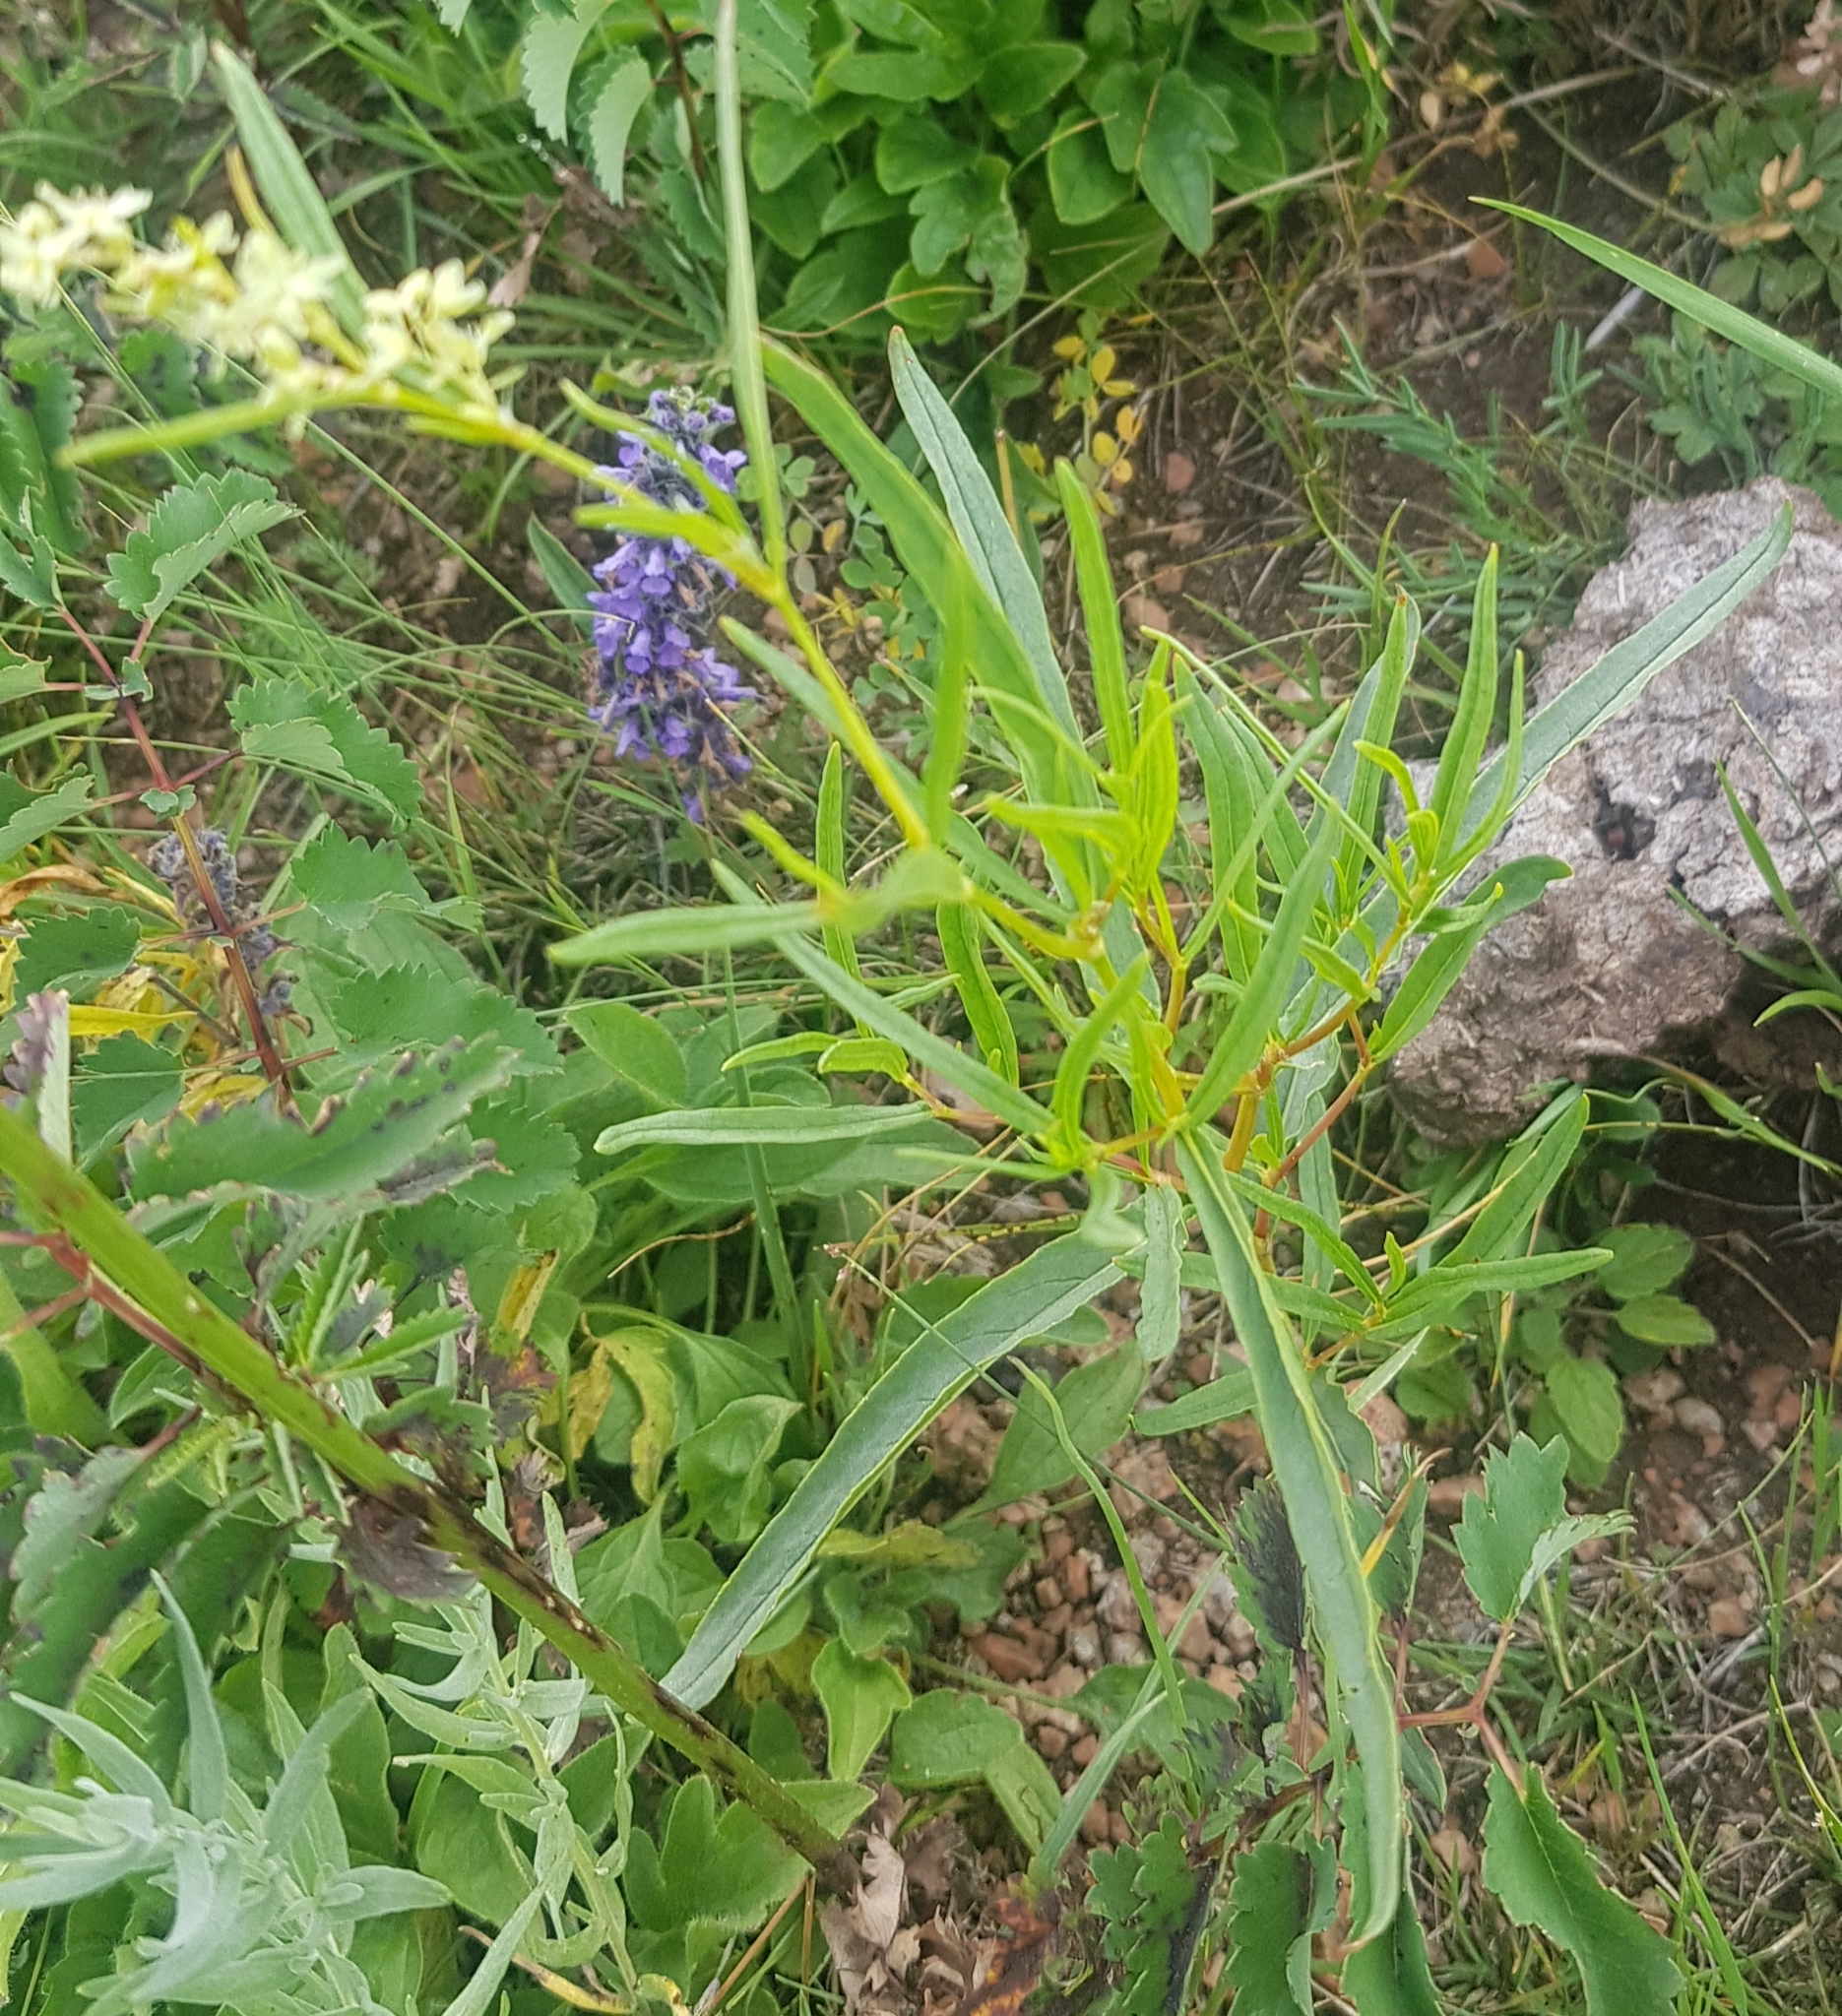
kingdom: Plantae
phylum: Tracheophyta
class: Magnoliopsida
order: Caryophyllales
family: Polygonaceae
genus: Koenigia
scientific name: Koenigia alpina
